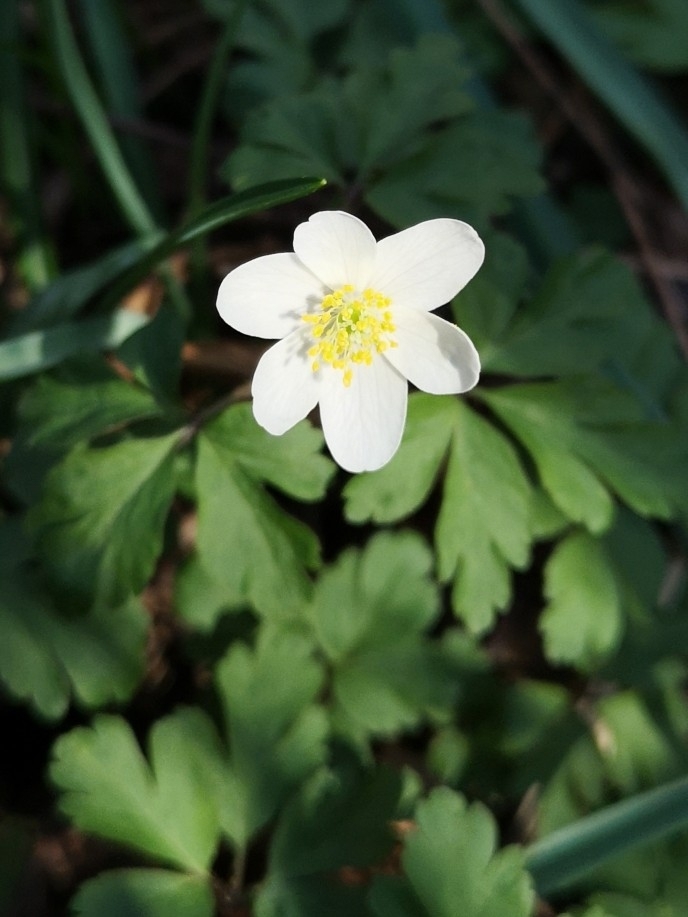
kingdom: Plantae
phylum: Tracheophyta
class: Magnoliopsida
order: Ranunculales
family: Ranunculaceae
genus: Anemone
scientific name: Anemone nemorosa
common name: Wood anemone
